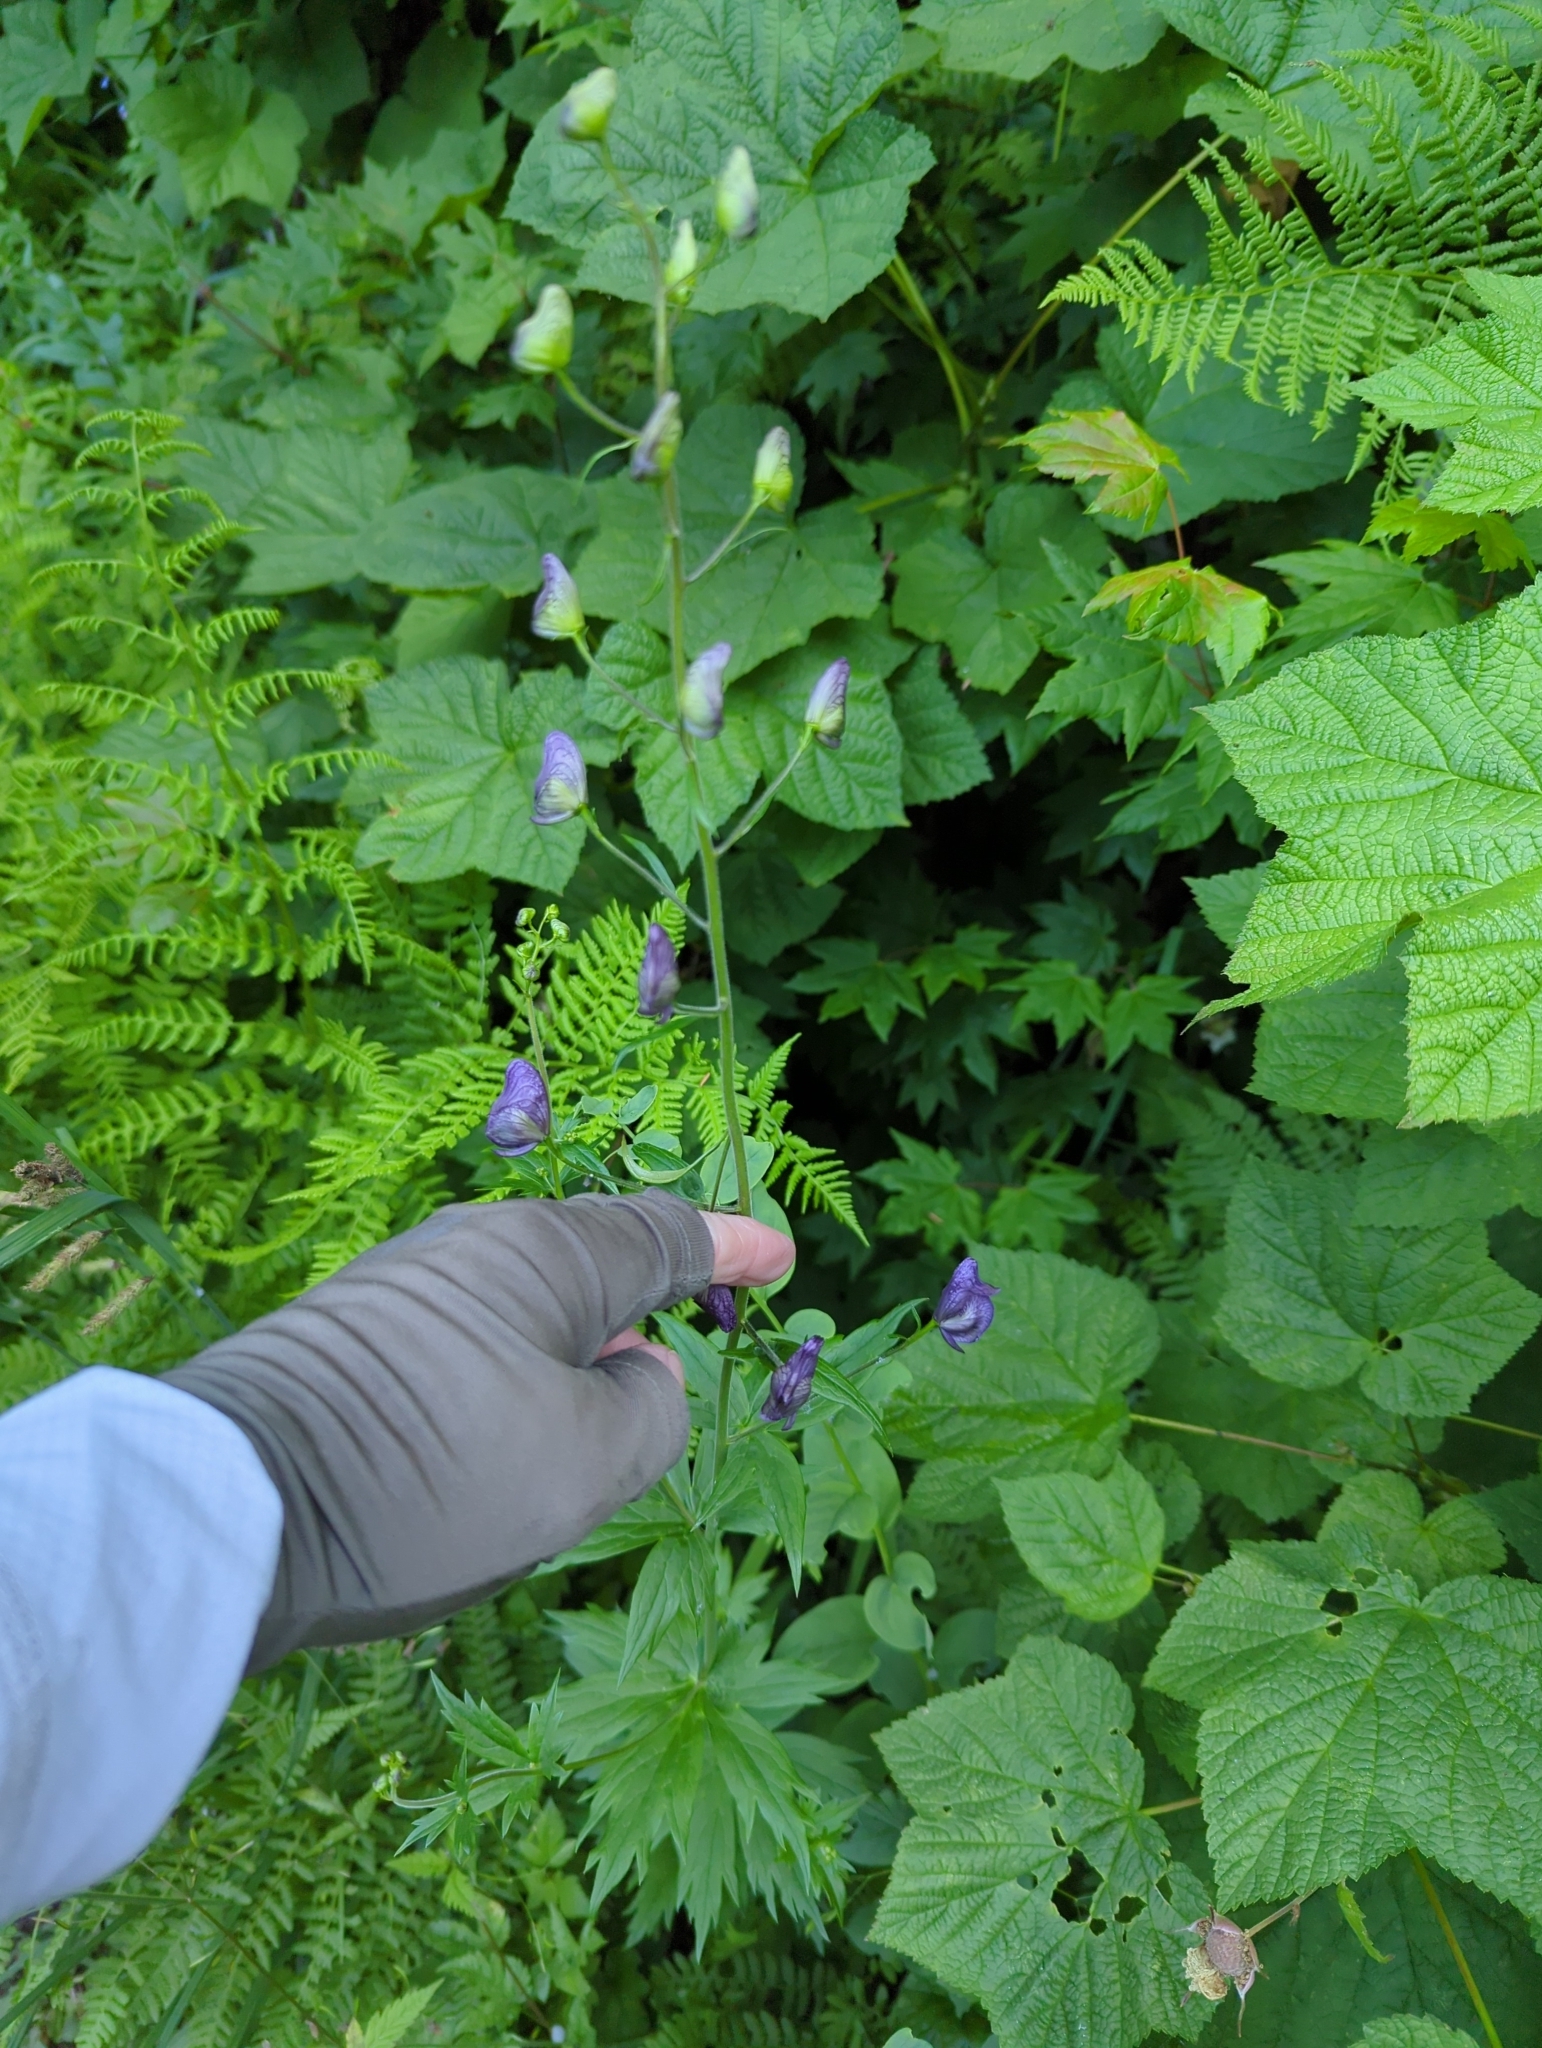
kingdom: Plantae
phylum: Tracheophyta
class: Magnoliopsida
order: Ranunculales
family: Ranunculaceae
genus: Aconitum
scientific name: Aconitum columbianum
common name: Columbia aconite
